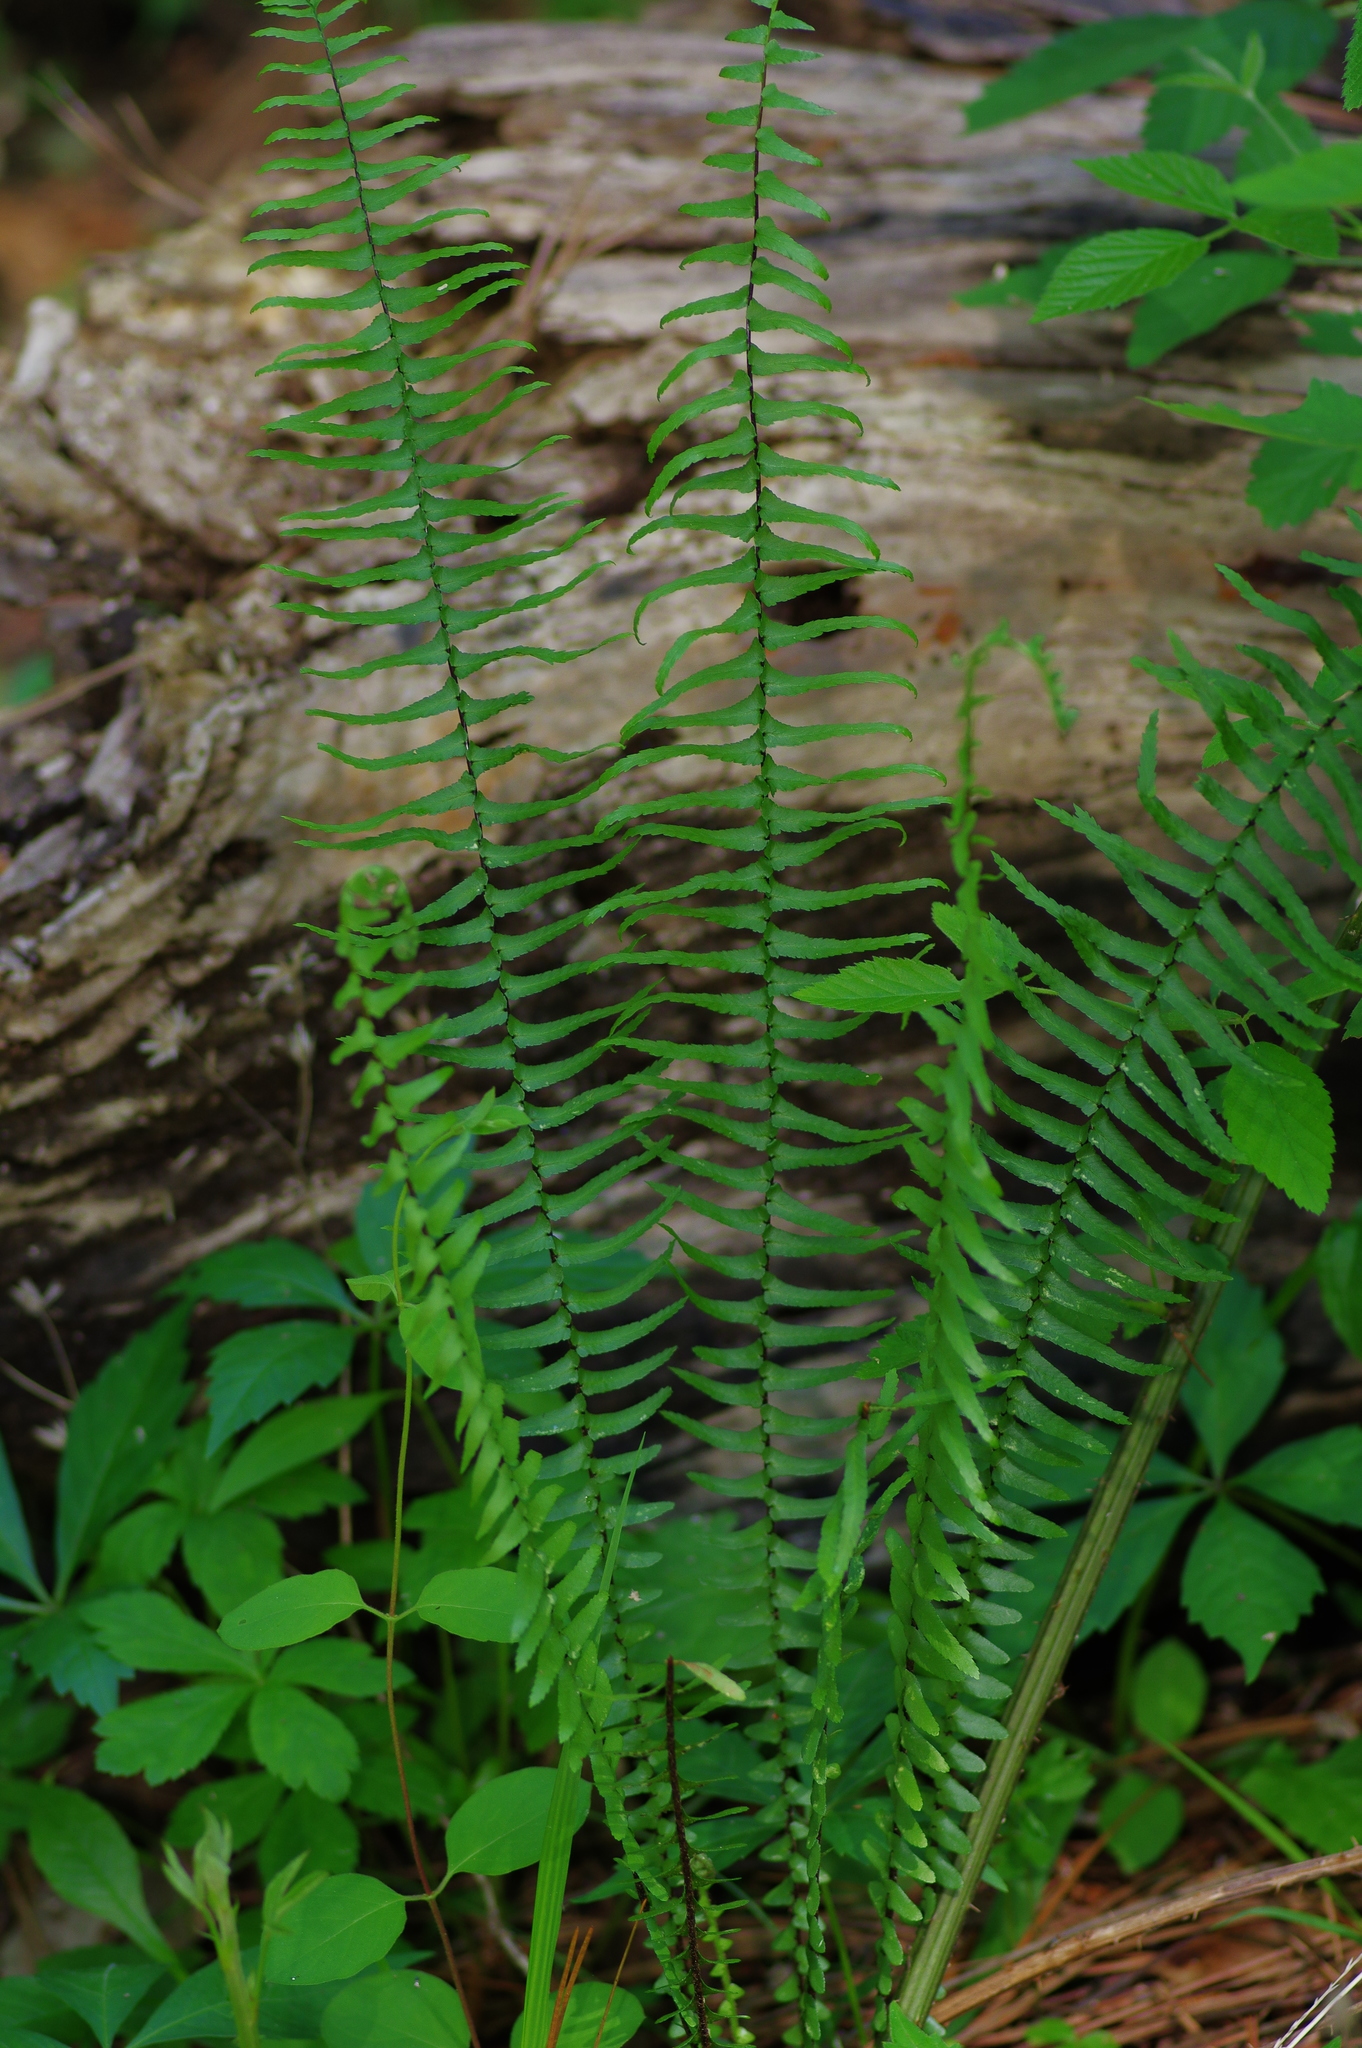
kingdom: Plantae
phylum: Tracheophyta
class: Polypodiopsida
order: Polypodiales
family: Aspleniaceae
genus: Asplenium
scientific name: Asplenium platyneuron
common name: Ebony spleenwort
